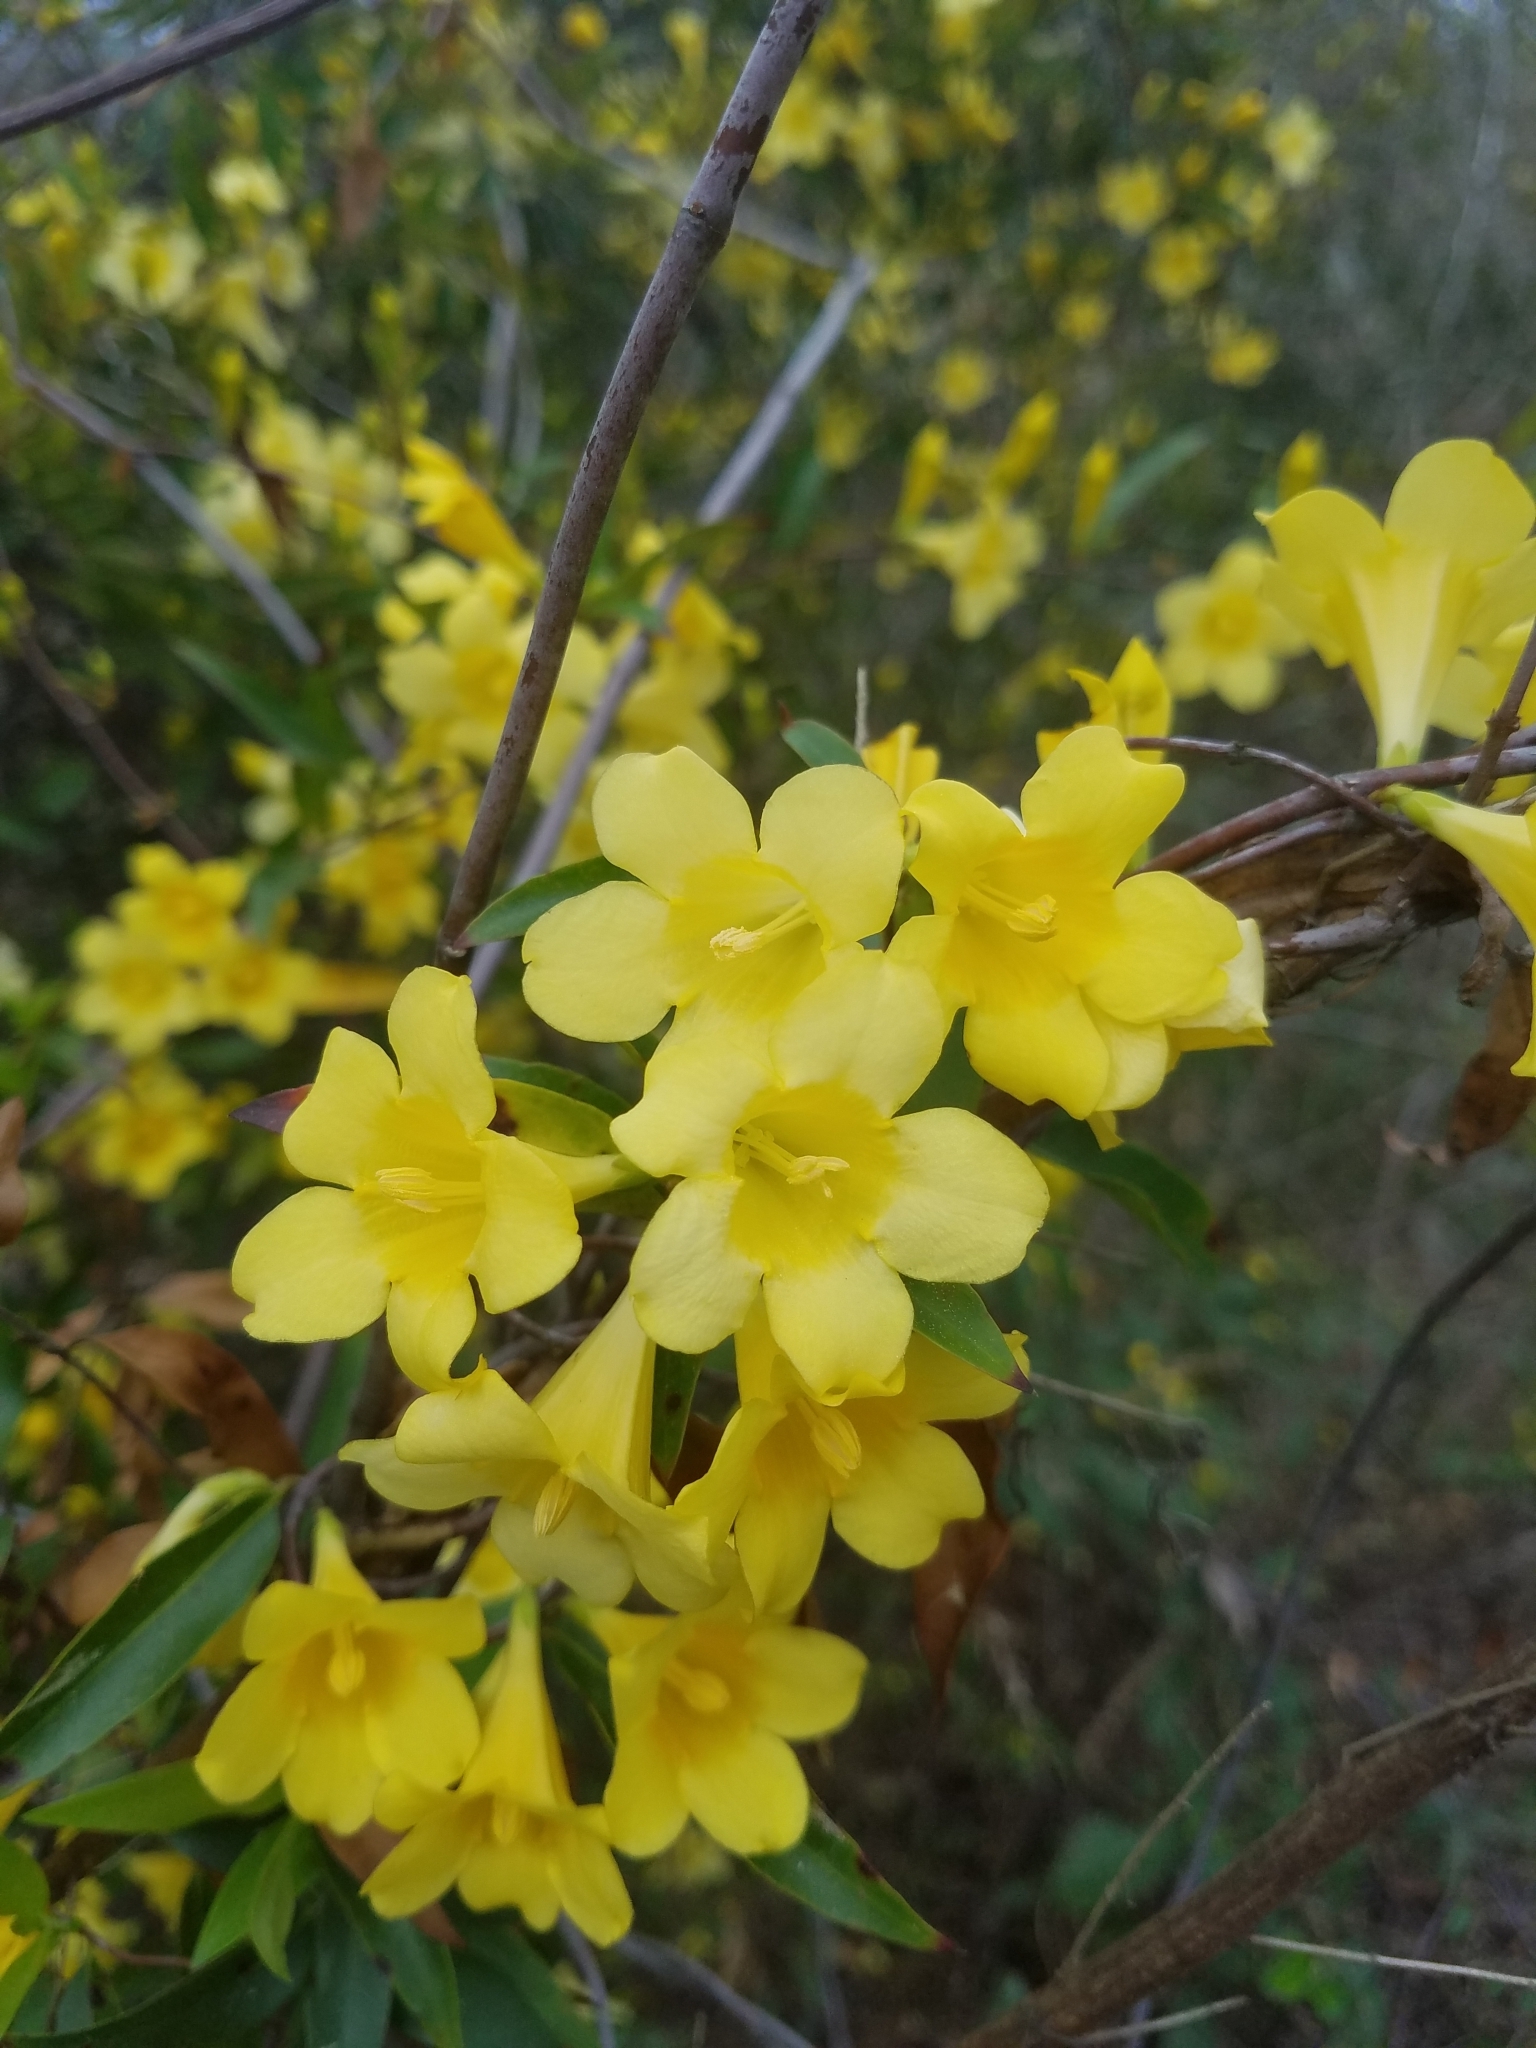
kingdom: Plantae
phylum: Tracheophyta
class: Magnoliopsida
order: Gentianales
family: Gelsemiaceae
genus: Gelsemium
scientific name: Gelsemium sempervirens
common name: Carolina-jasmine
